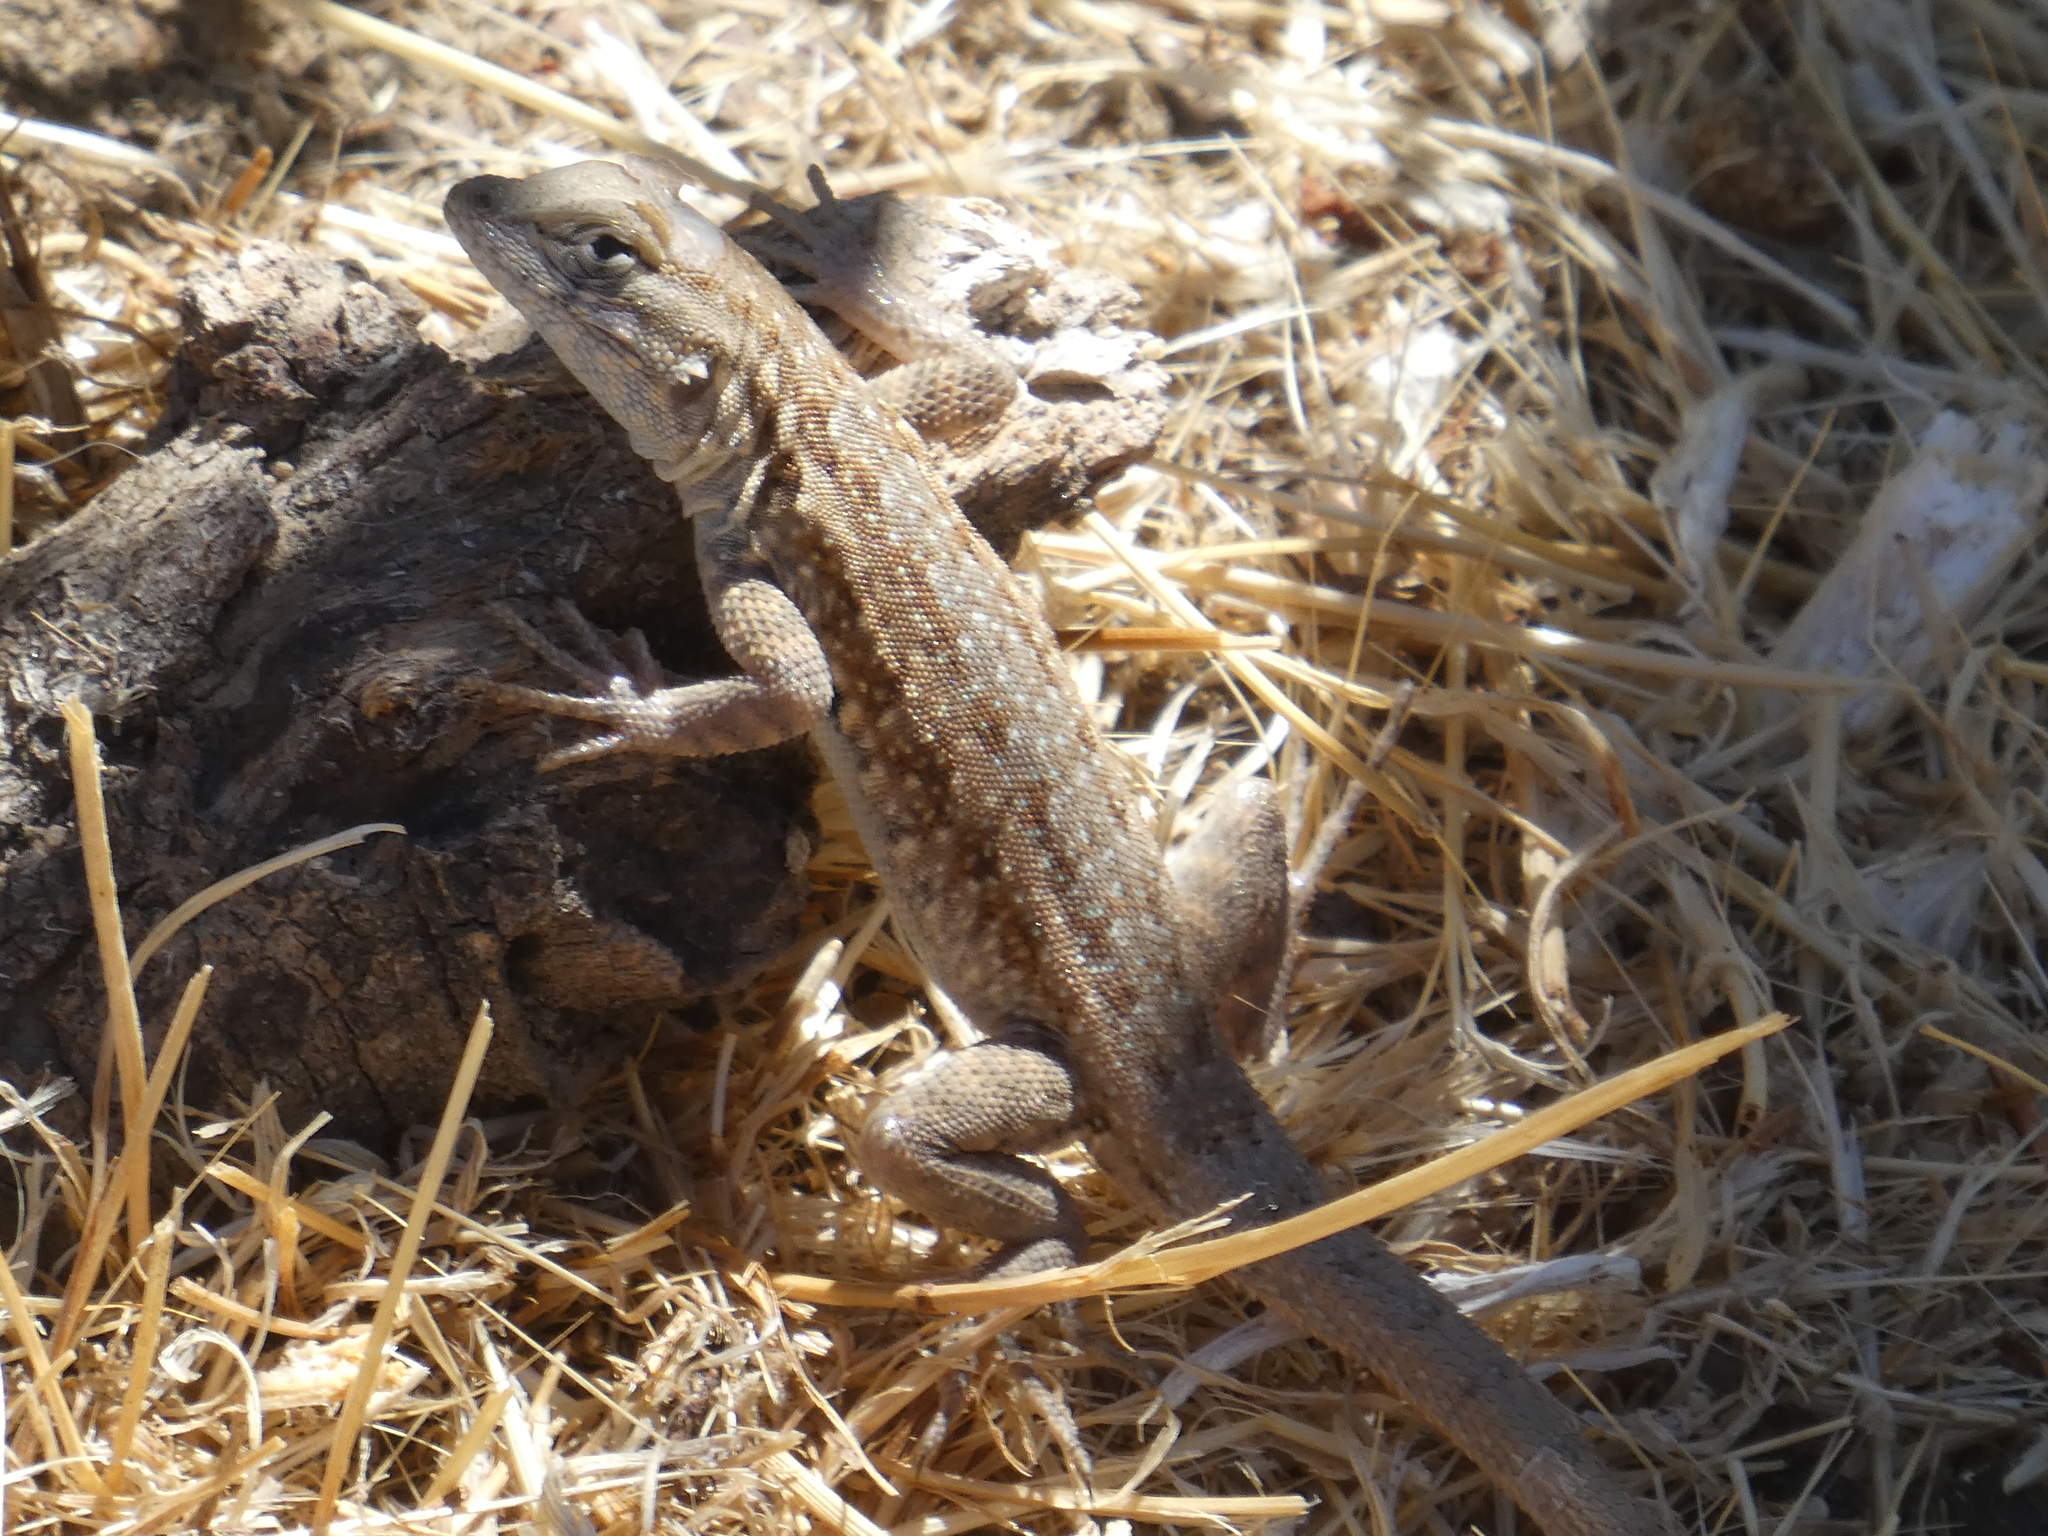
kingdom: Animalia
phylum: Chordata
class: Squamata
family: Phrynosomatidae
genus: Uta
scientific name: Uta stansburiana
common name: Side-blotched lizard
